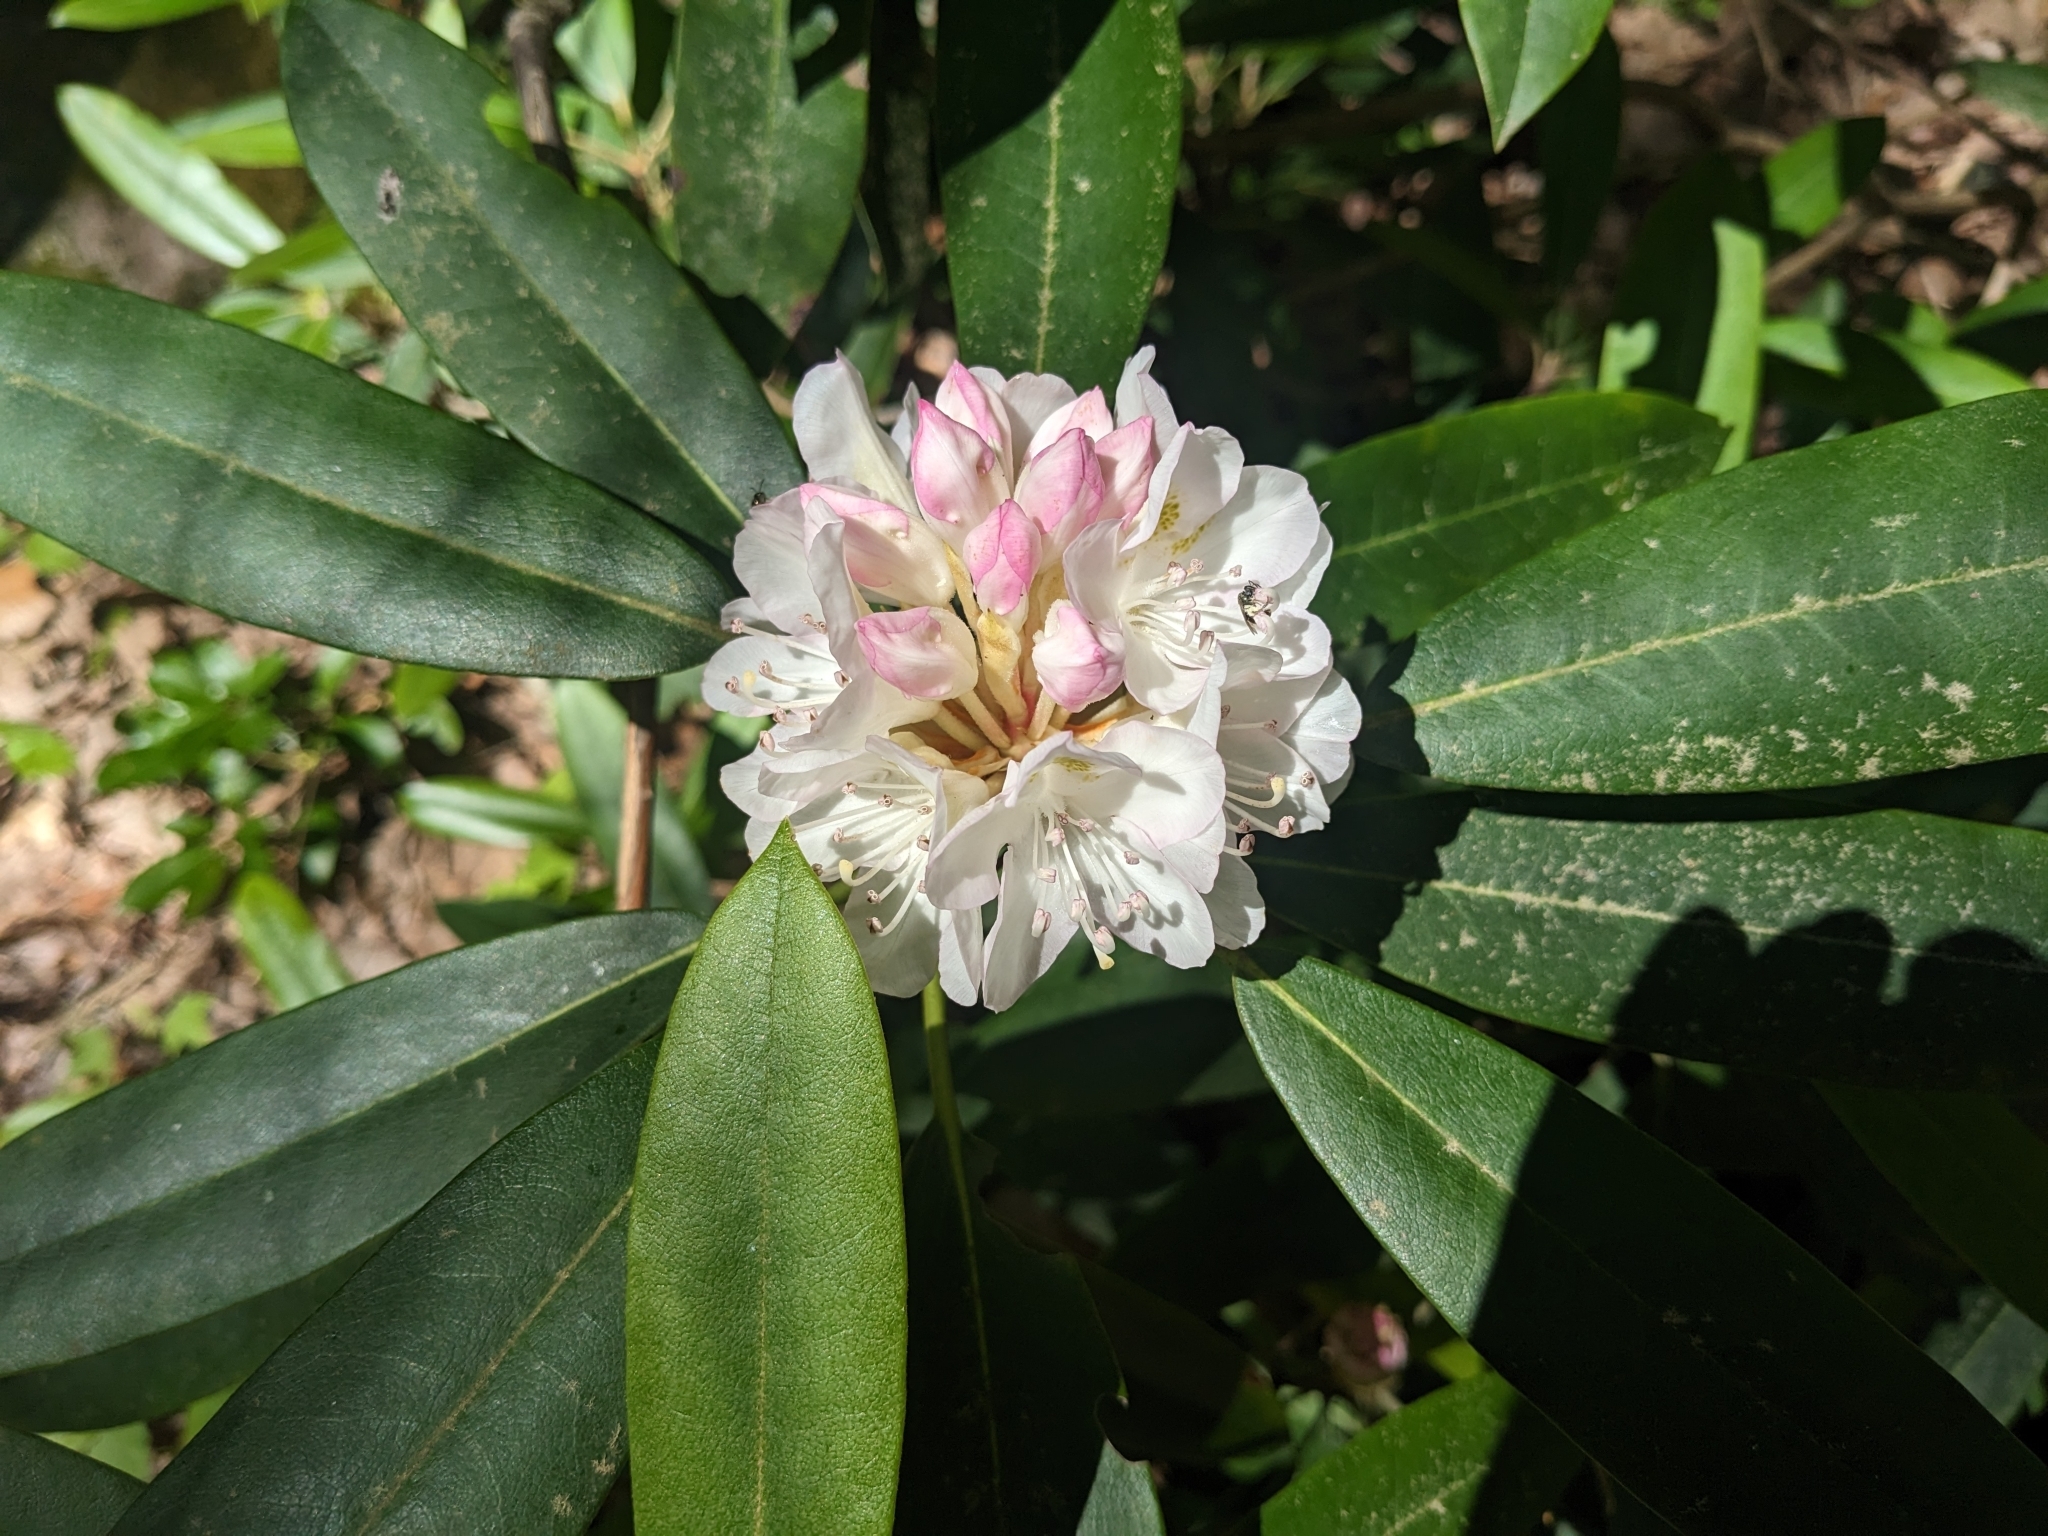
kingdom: Plantae
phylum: Tracheophyta
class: Magnoliopsida
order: Ericales
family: Ericaceae
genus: Rhododendron
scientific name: Rhododendron maximum
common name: Great rhododendron
